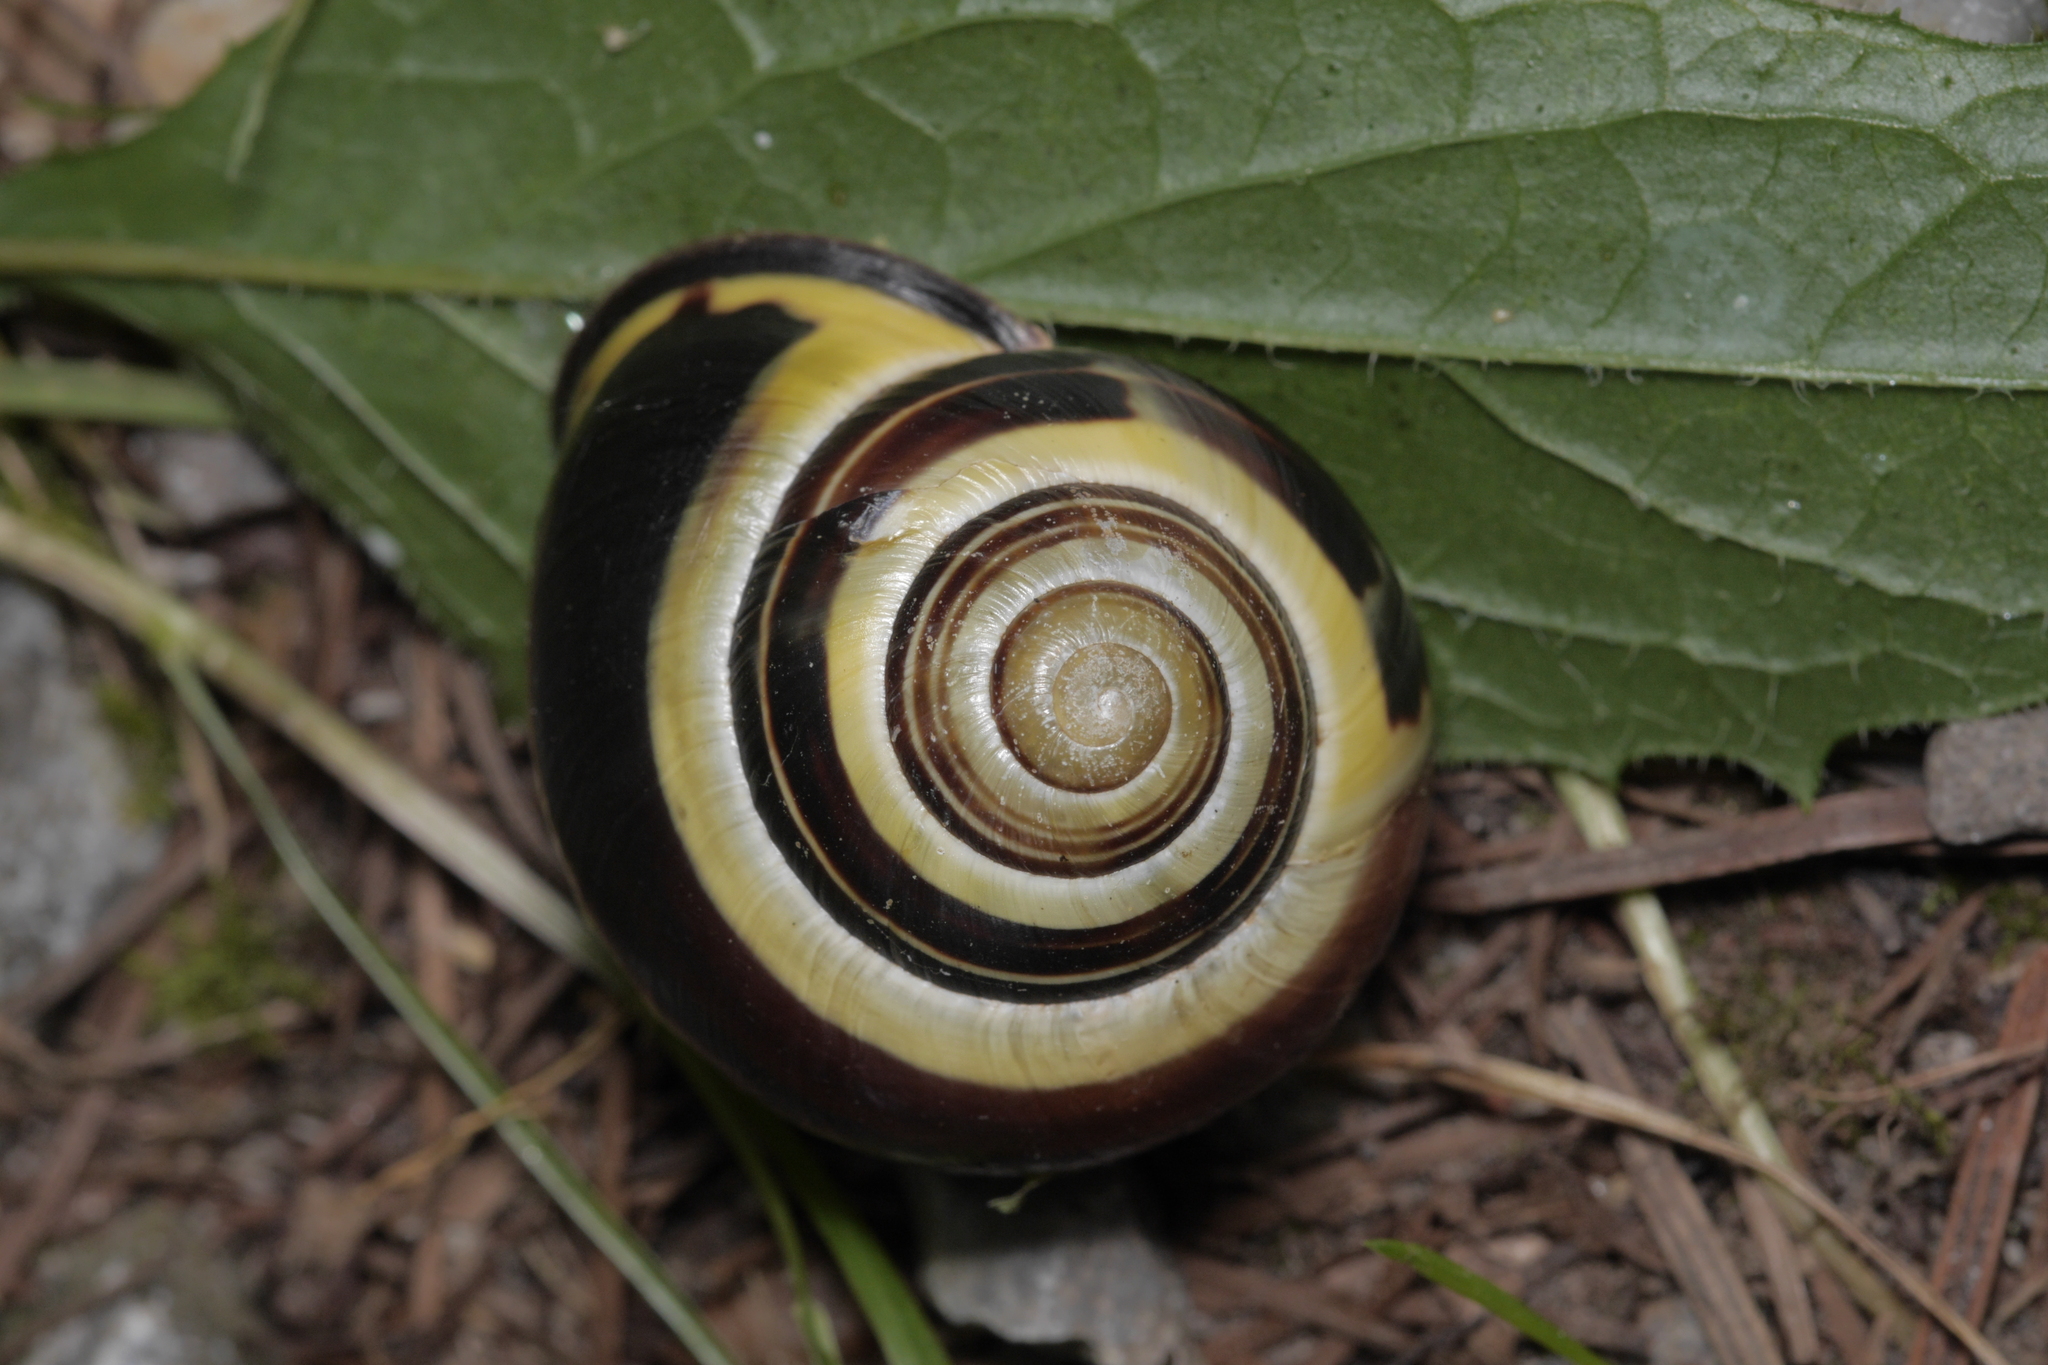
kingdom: Animalia
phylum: Mollusca
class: Gastropoda
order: Stylommatophora
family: Helicidae
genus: Cepaea
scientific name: Cepaea nemoralis
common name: Grovesnail
